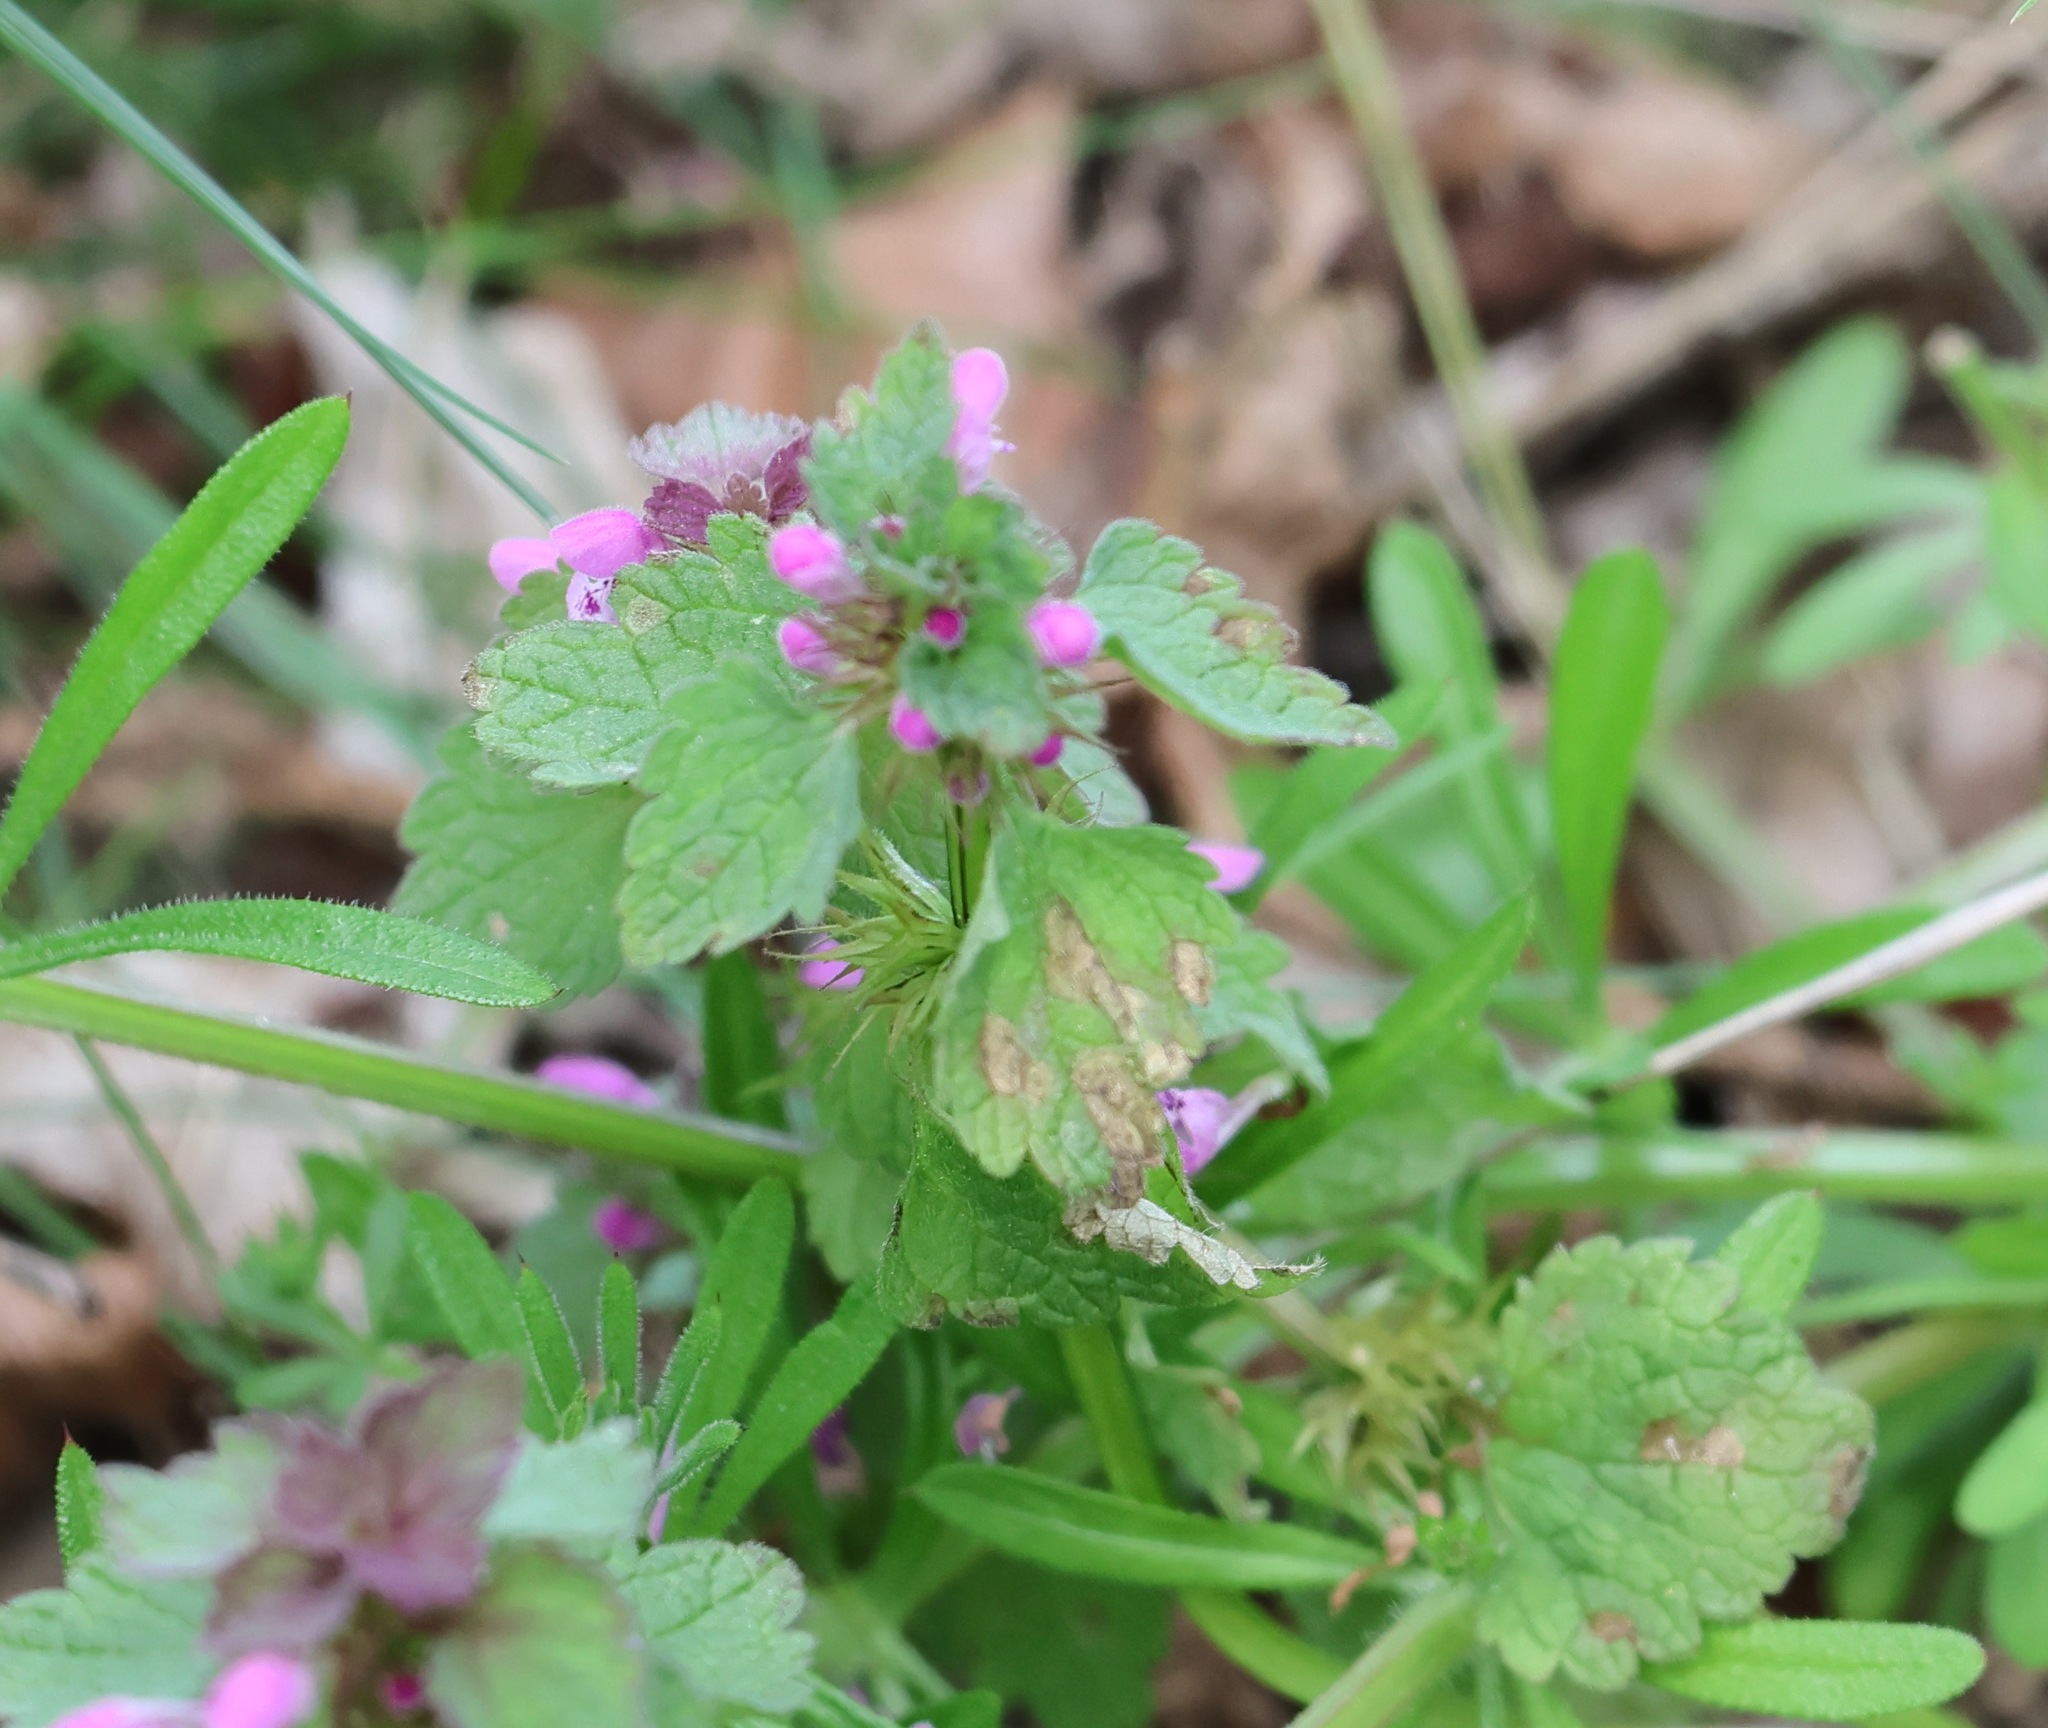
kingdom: Plantae
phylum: Tracheophyta
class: Magnoliopsida
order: Lamiales
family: Lamiaceae
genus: Lamium
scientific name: Lamium purpureum
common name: Red dead-nettle
